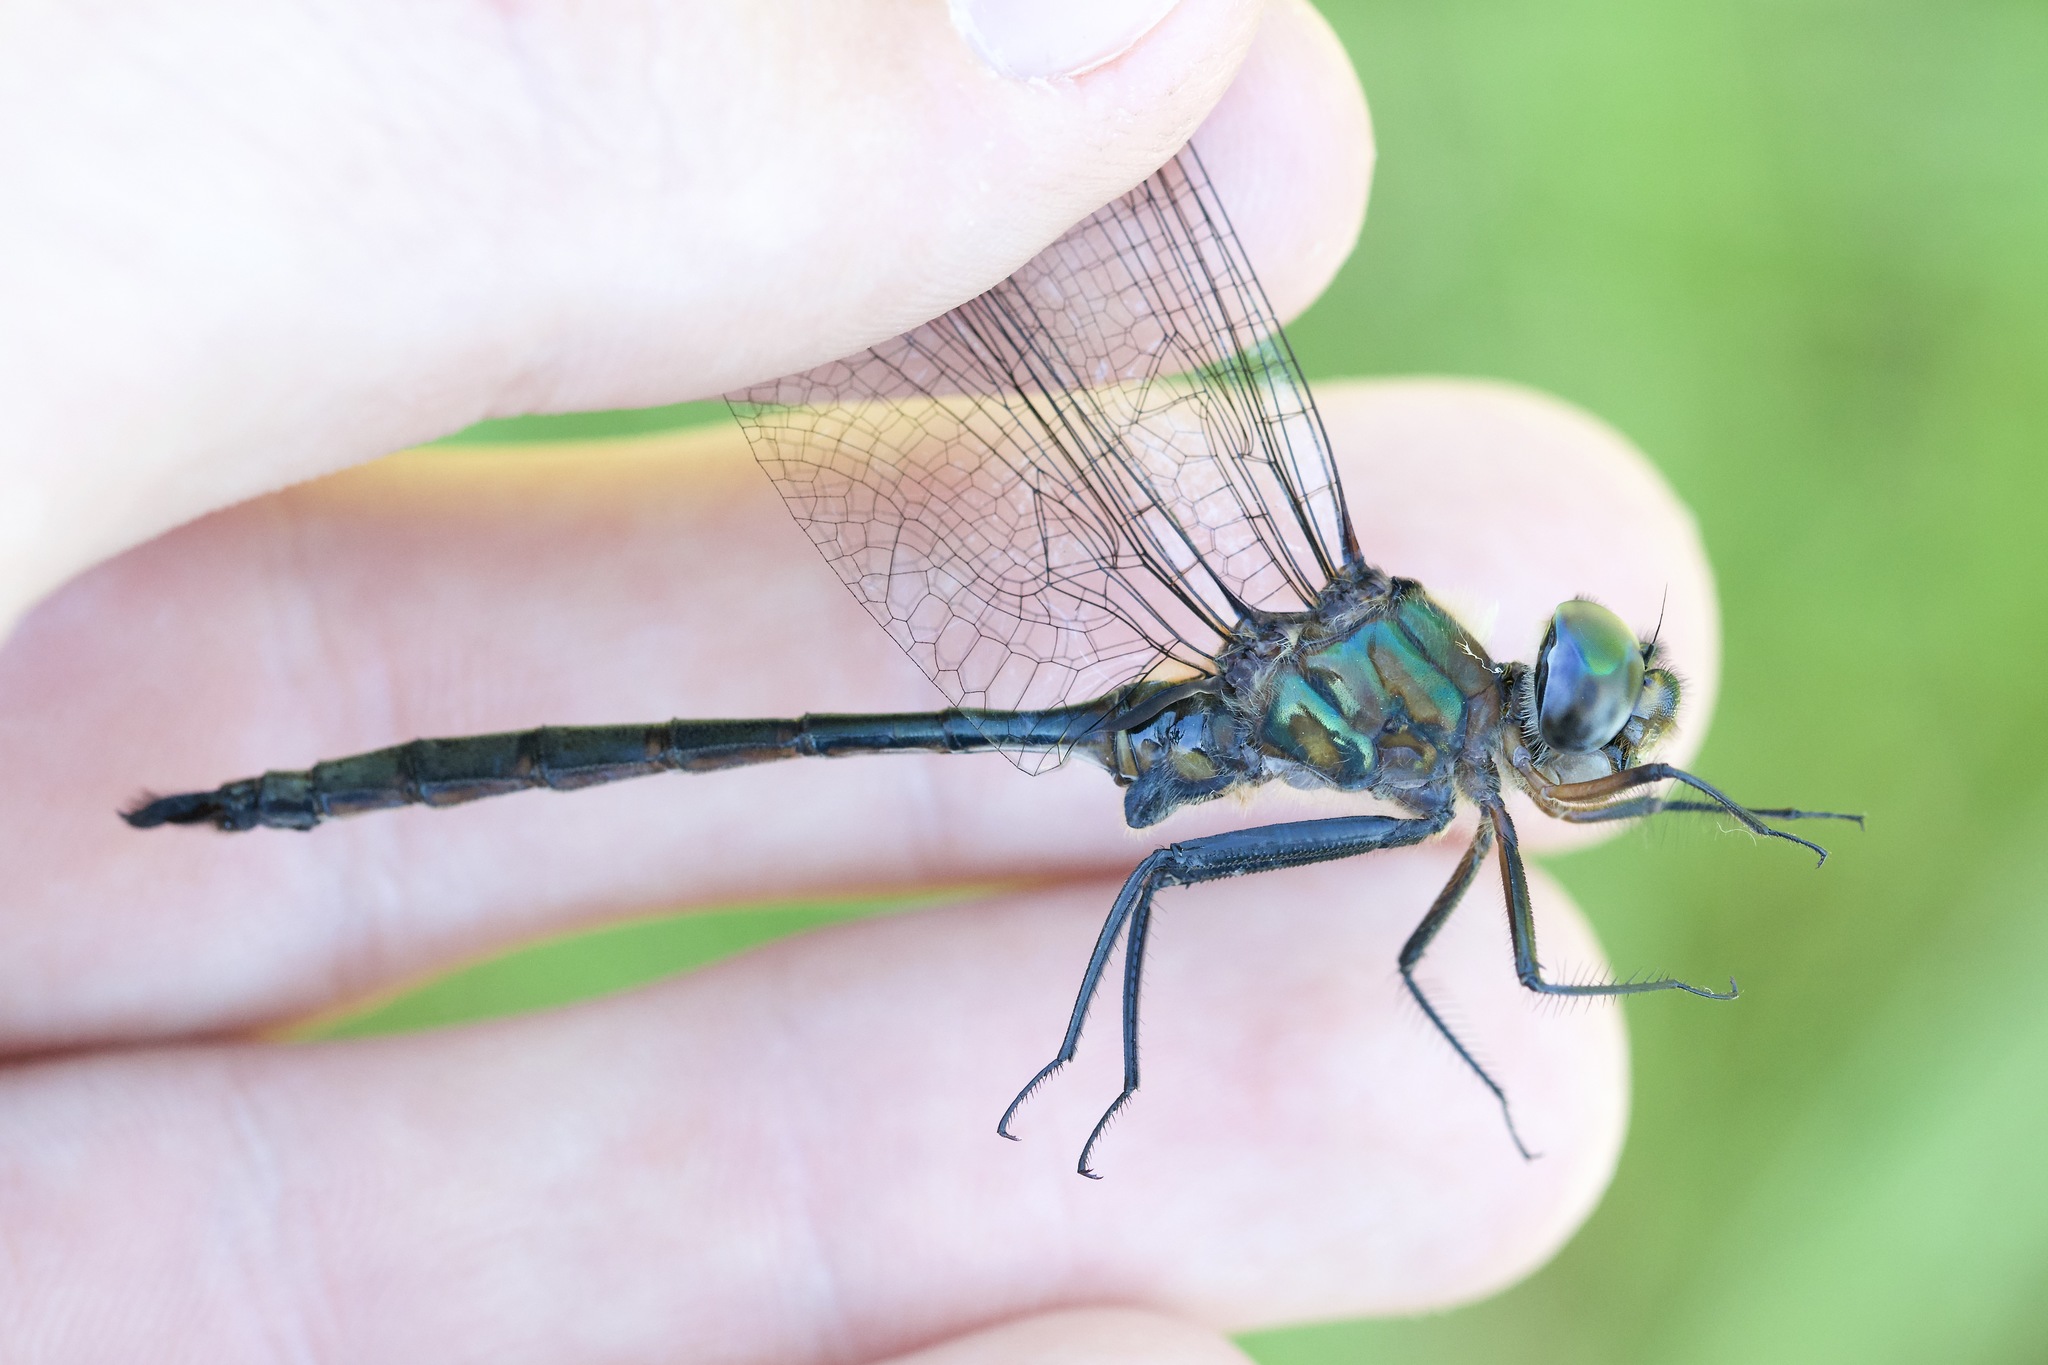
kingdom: Animalia
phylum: Arthropoda
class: Insecta
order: Odonata
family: Corduliidae
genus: Somatochlora
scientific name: Somatochlora williamsoni
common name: Williamson's emerald
